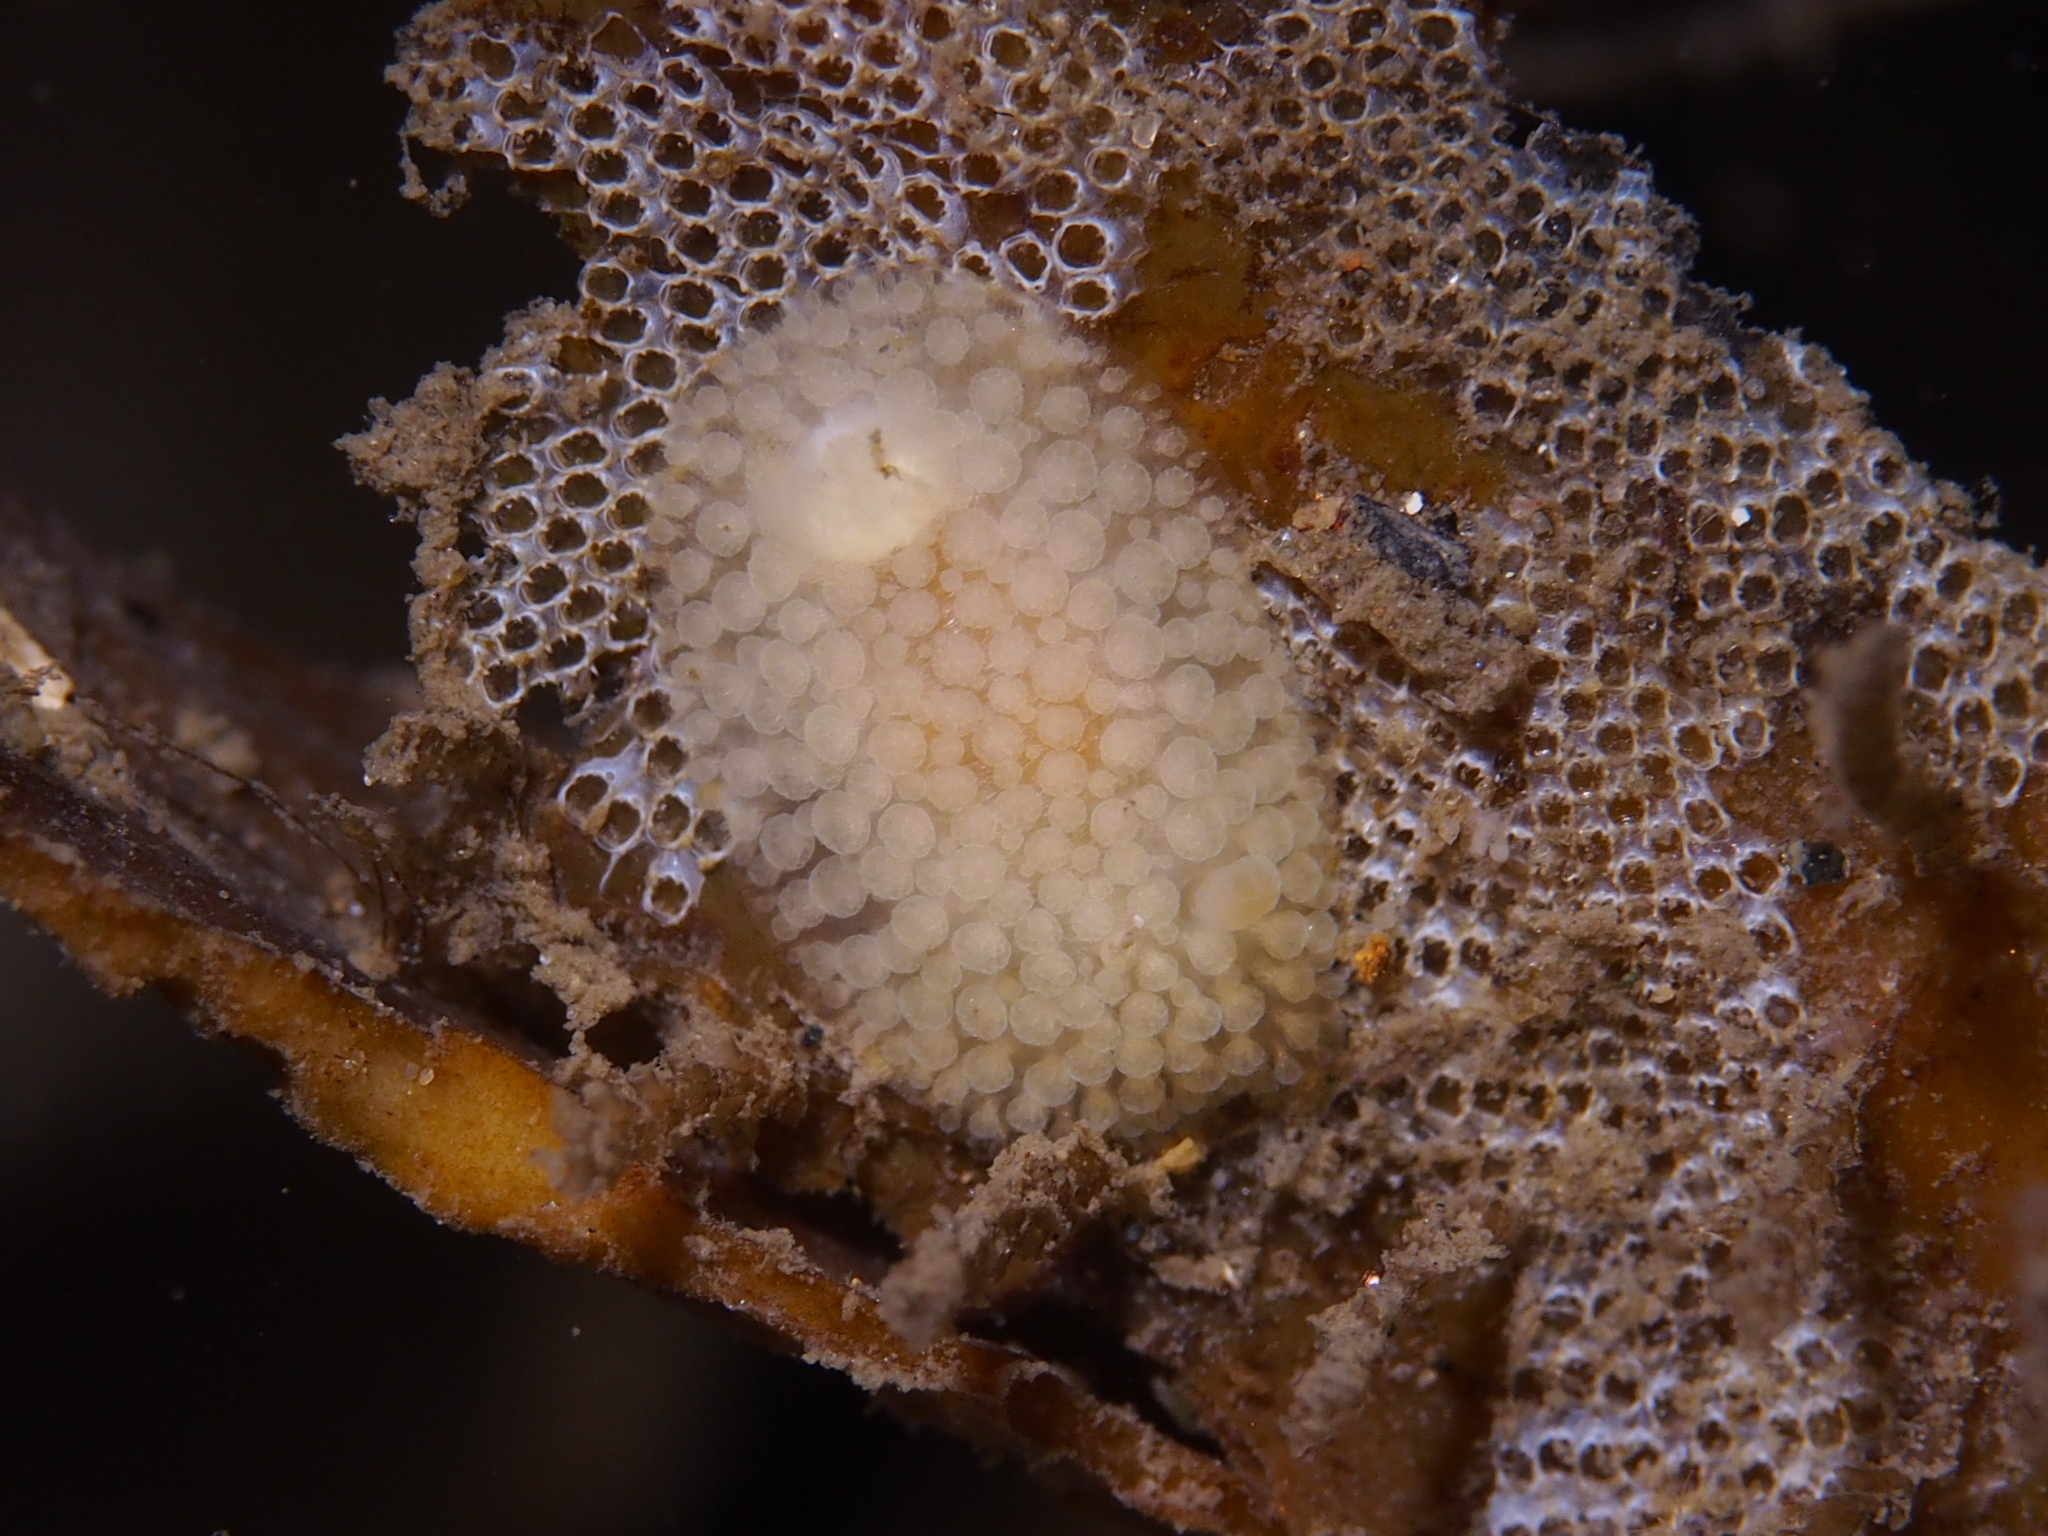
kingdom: Animalia
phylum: Mollusca
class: Gastropoda
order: Nudibranchia
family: Onchidorididae
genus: Onchidoris
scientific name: Onchidoris muricata
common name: Rough doris
